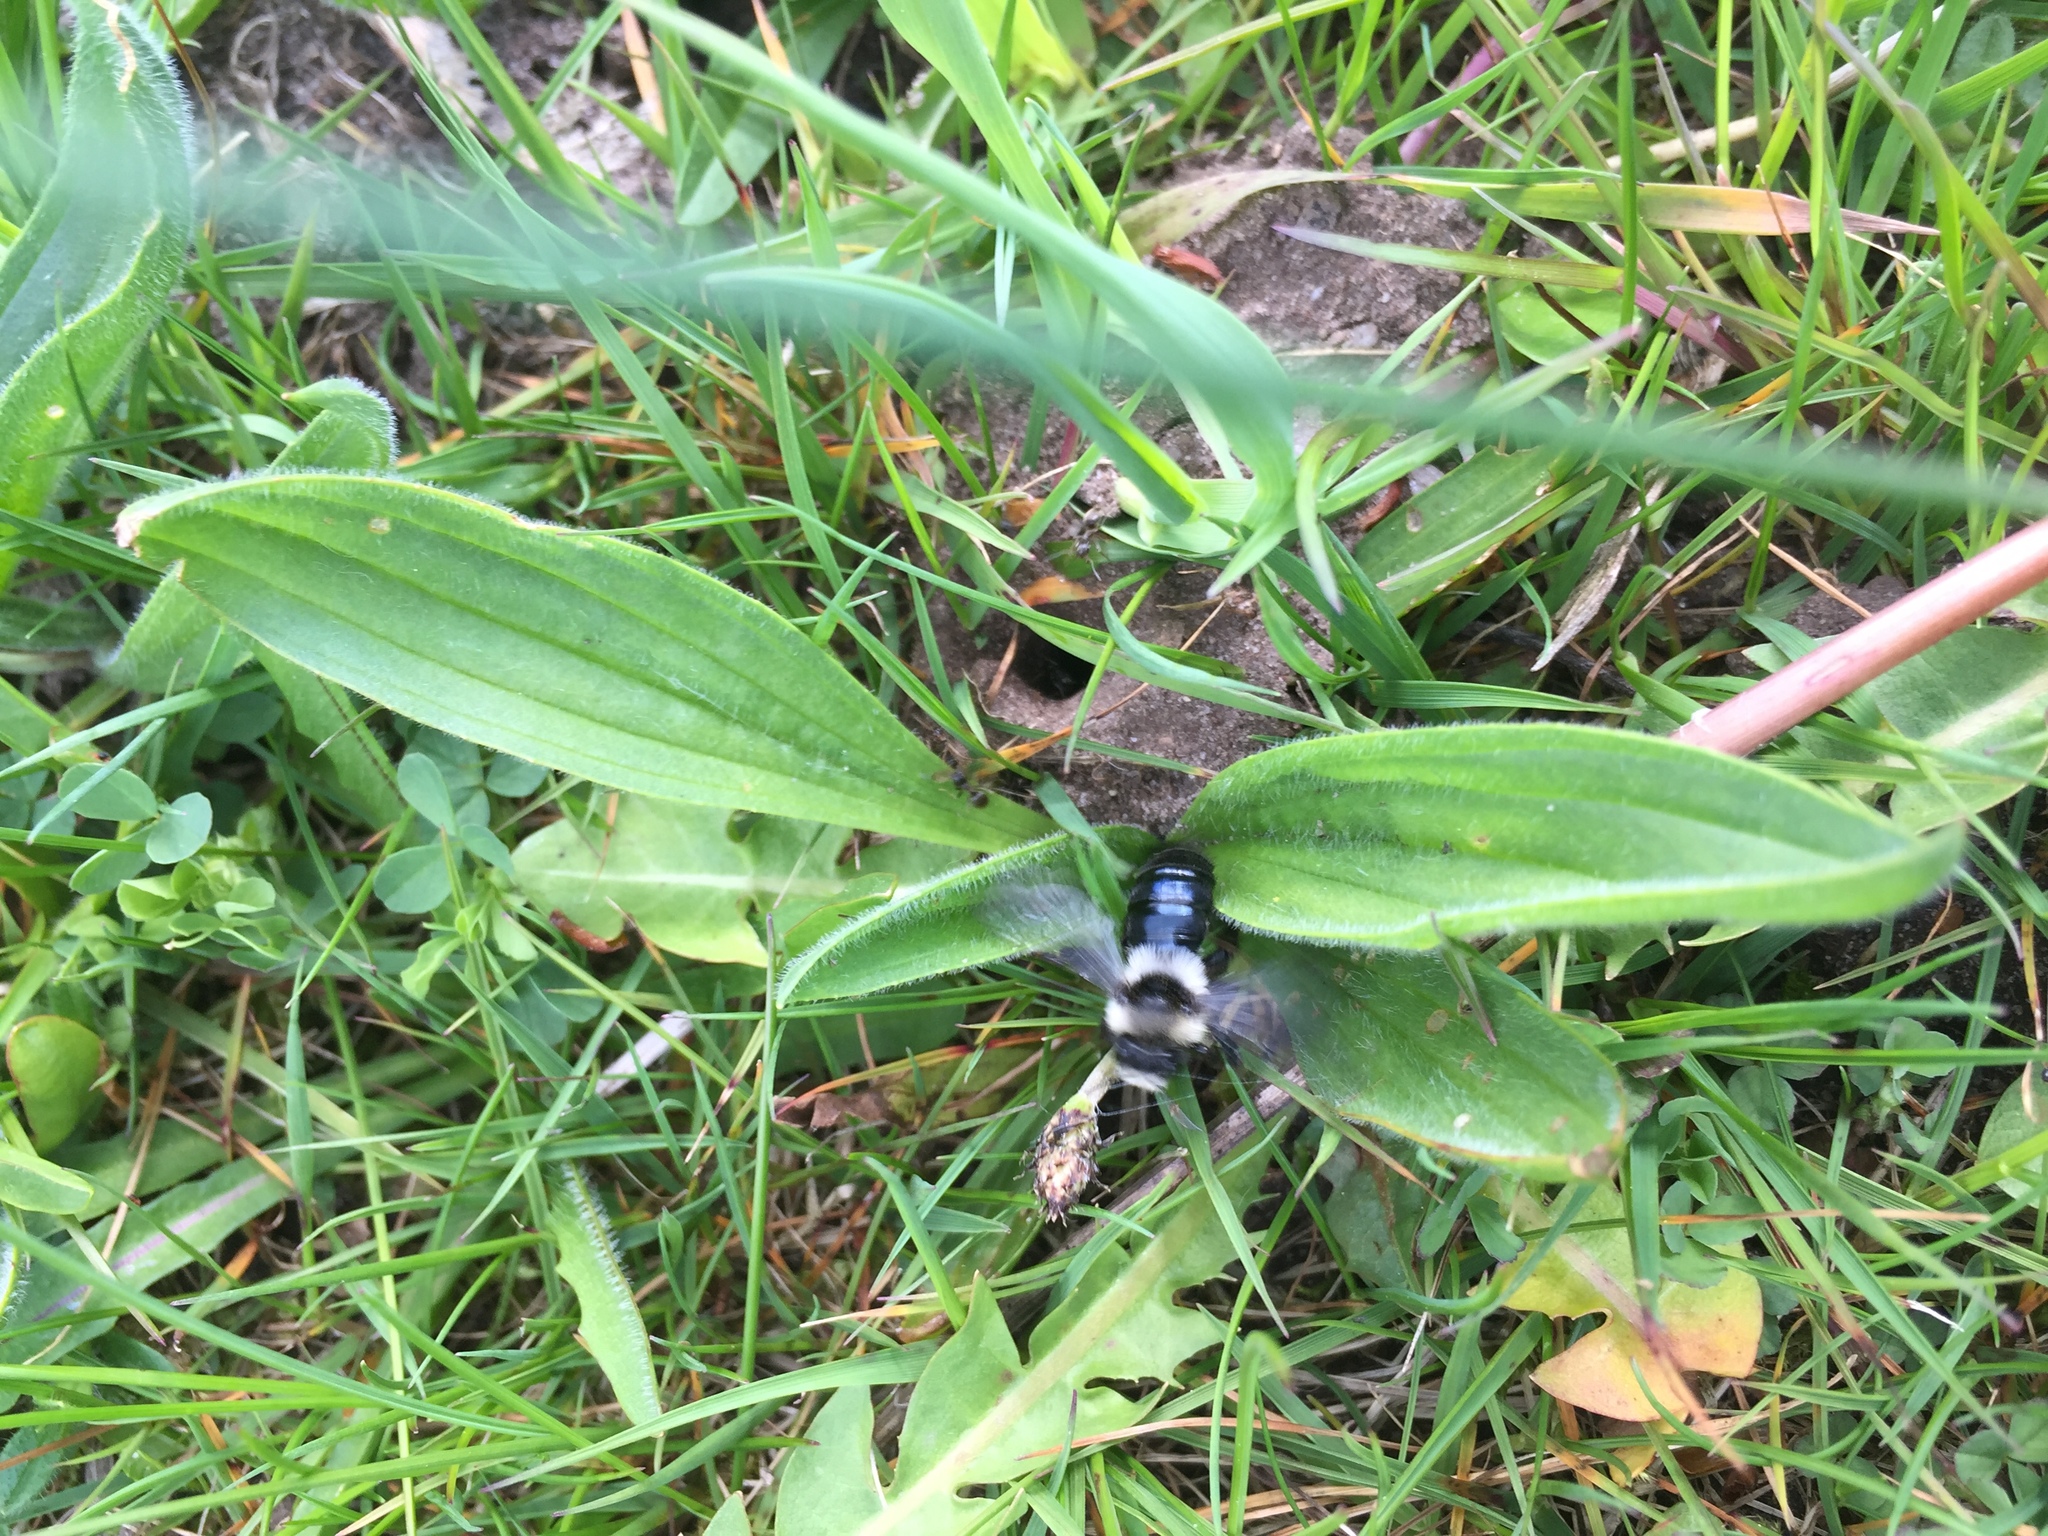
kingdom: Animalia
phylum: Arthropoda
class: Insecta
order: Hymenoptera
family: Andrenidae
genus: Andrena
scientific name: Andrena cineraria
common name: Ashy mining bee
